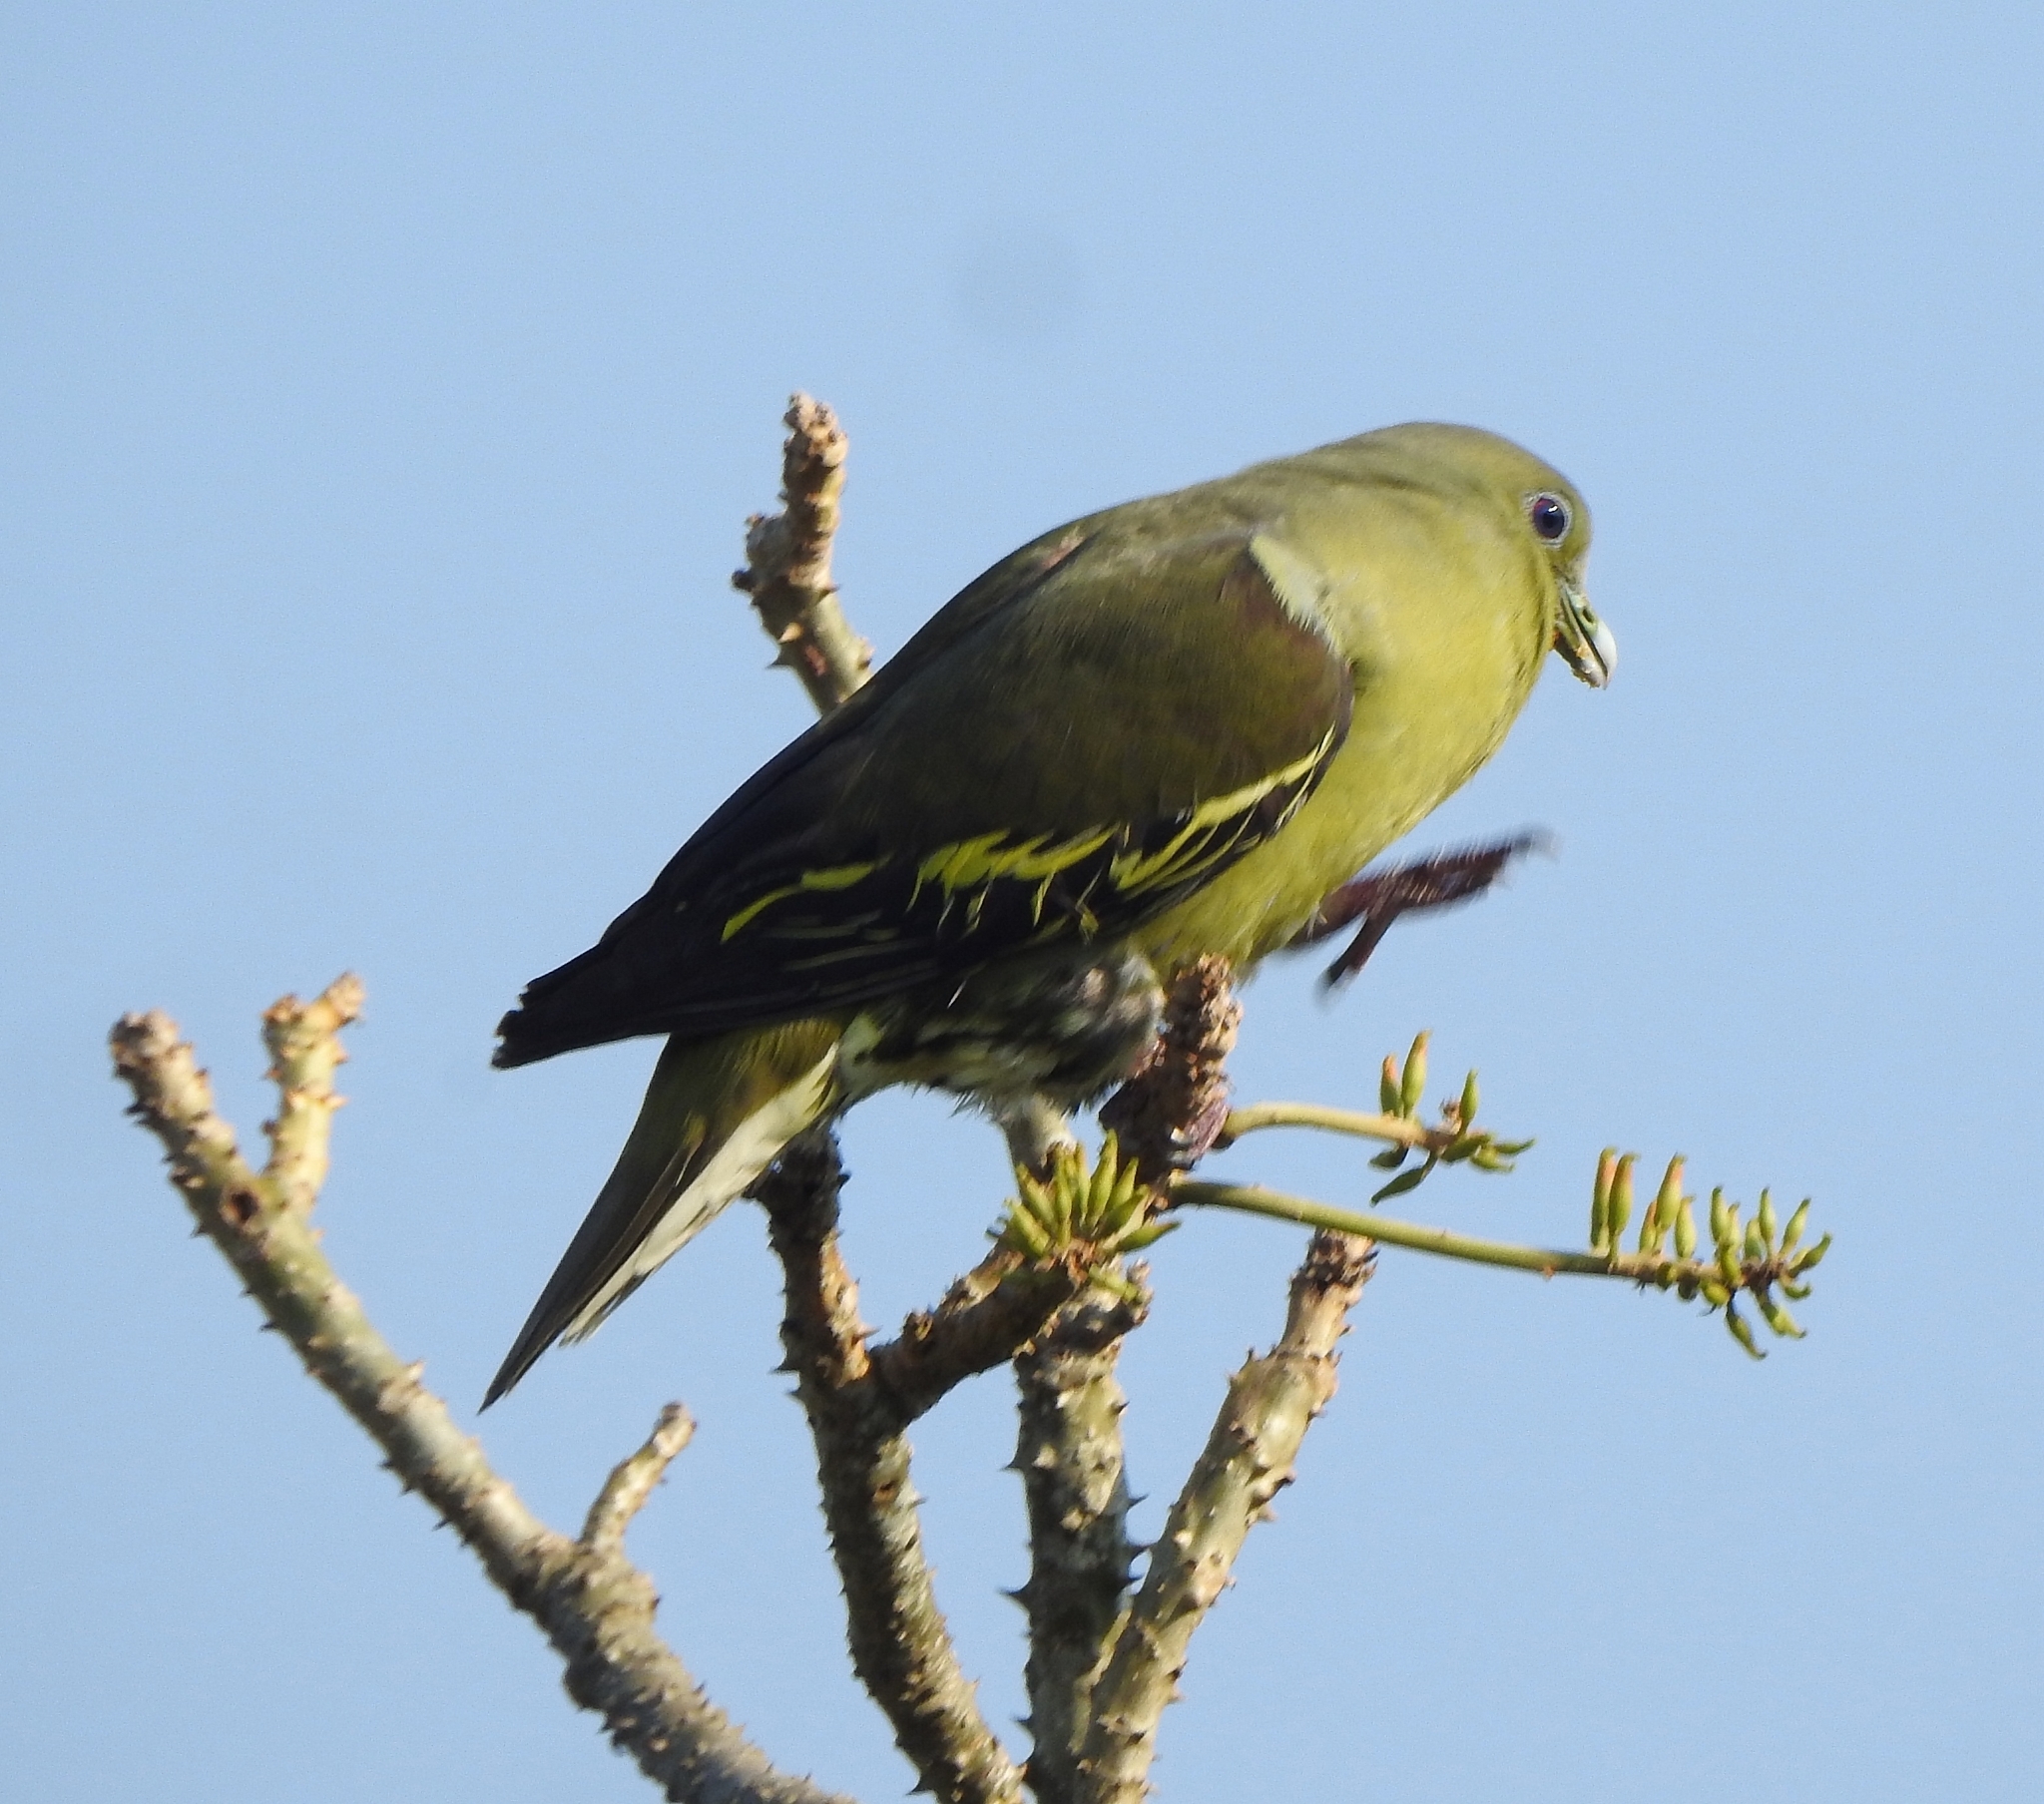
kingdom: Animalia
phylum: Chordata
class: Aves
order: Columbiformes
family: Columbidae
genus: Treron
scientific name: Treron affinis
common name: Grey-fronted green pigeon
